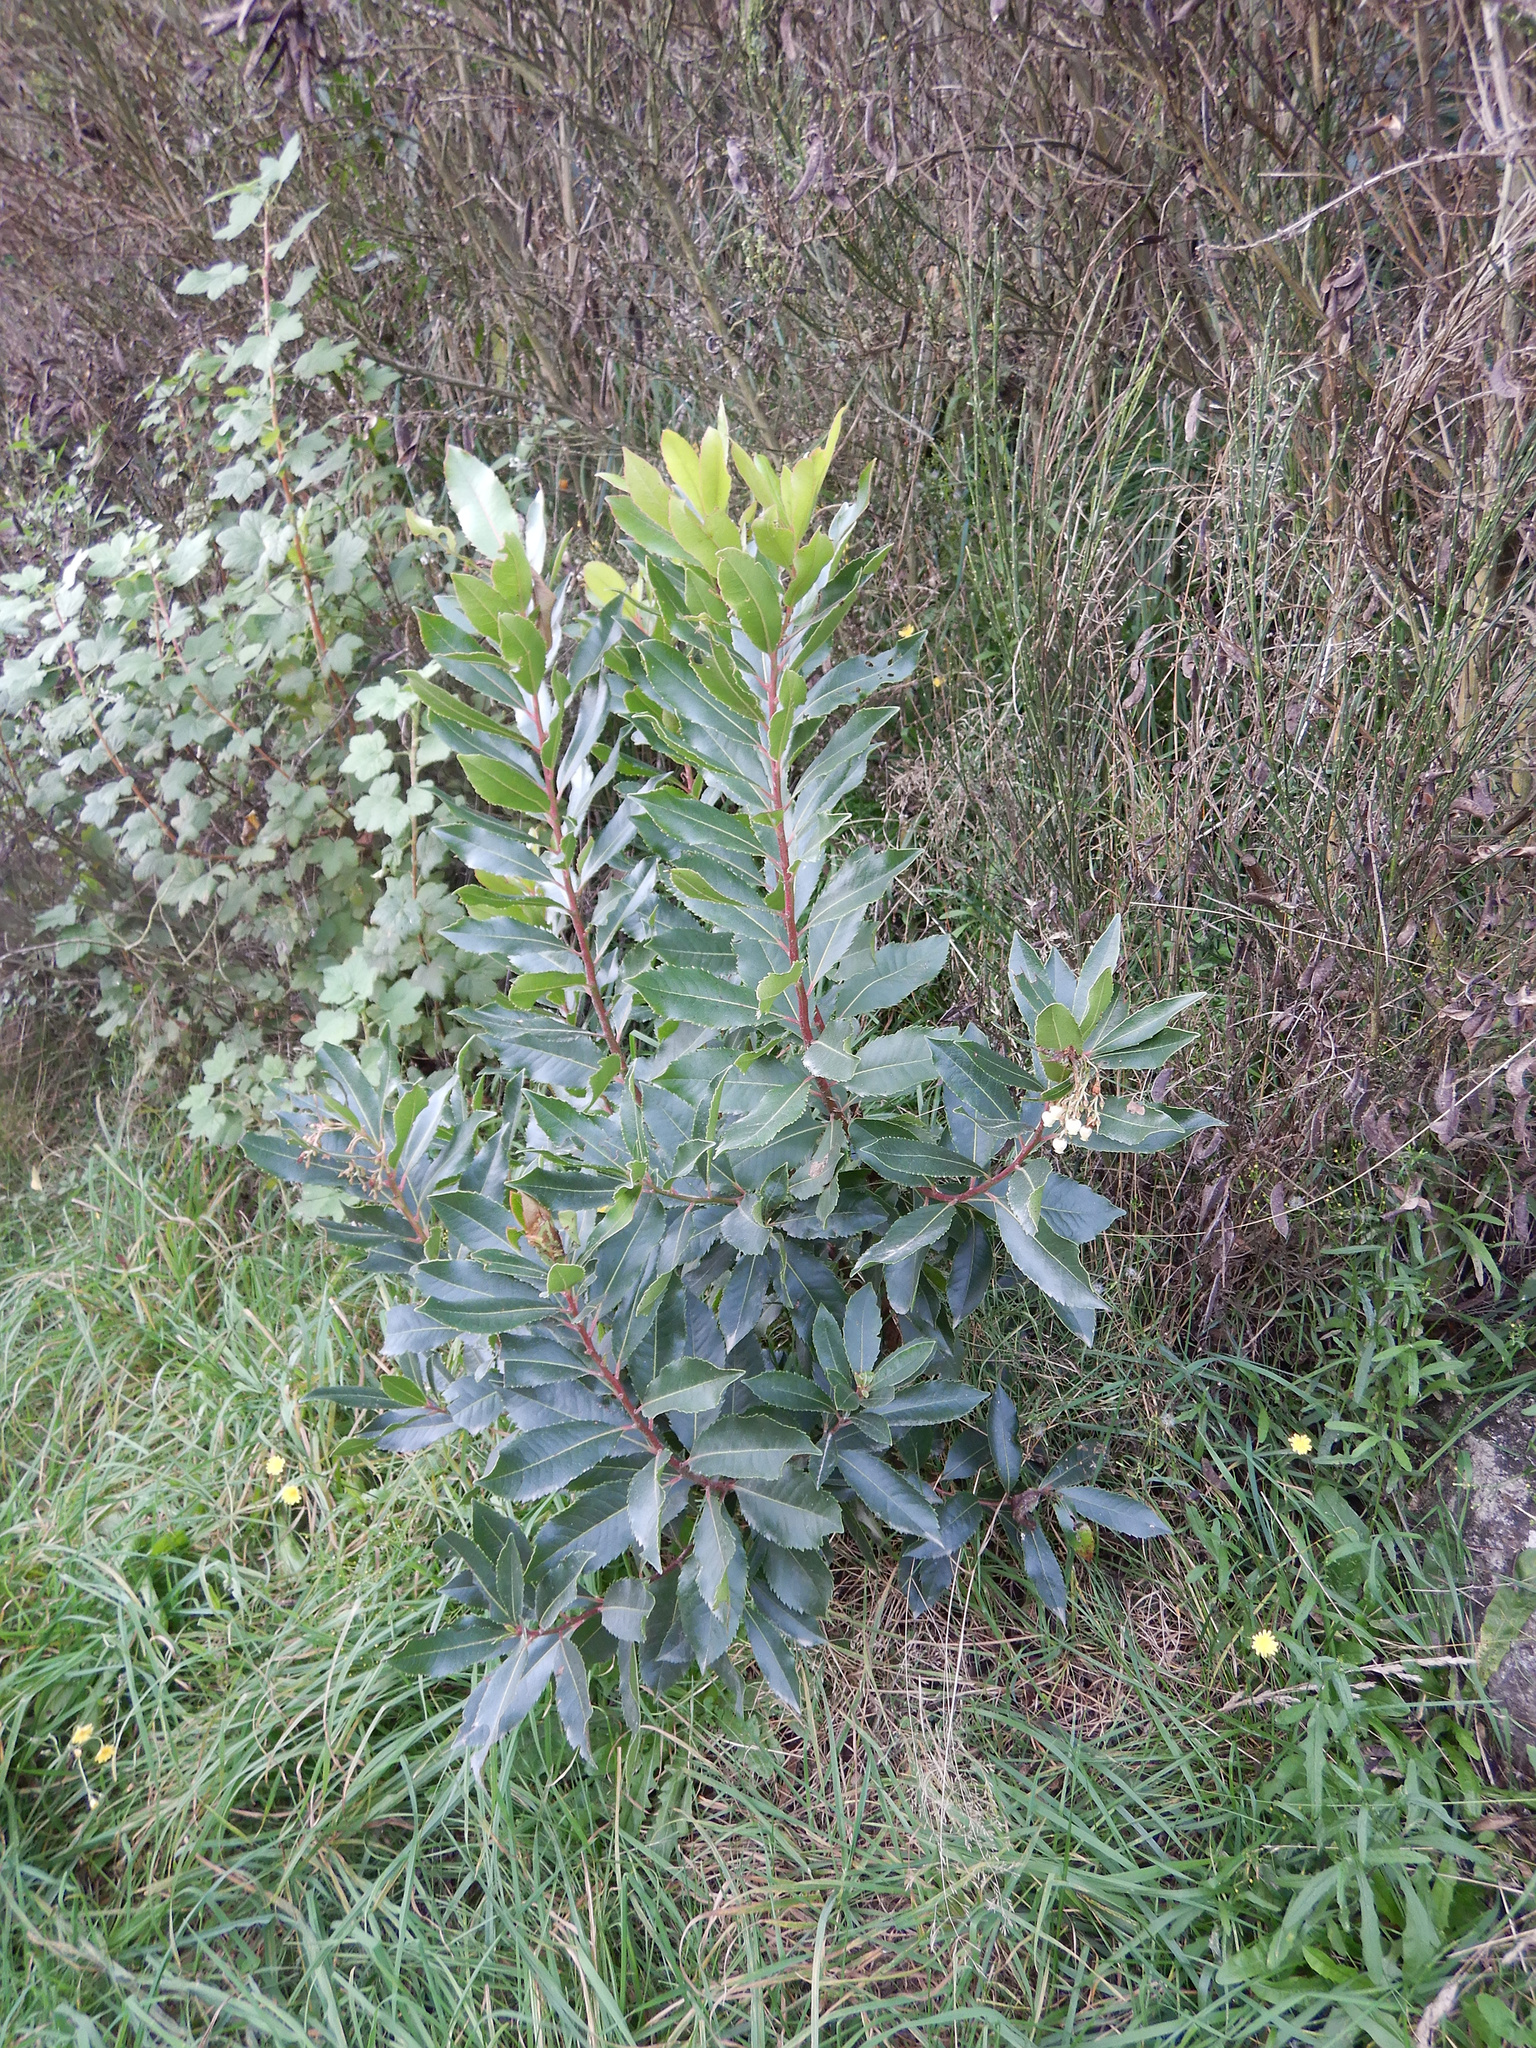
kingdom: Plantae
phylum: Tracheophyta
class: Magnoliopsida
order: Ericales
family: Ericaceae
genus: Arbutus
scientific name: Arbutus unedo
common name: Strawberry-tree
